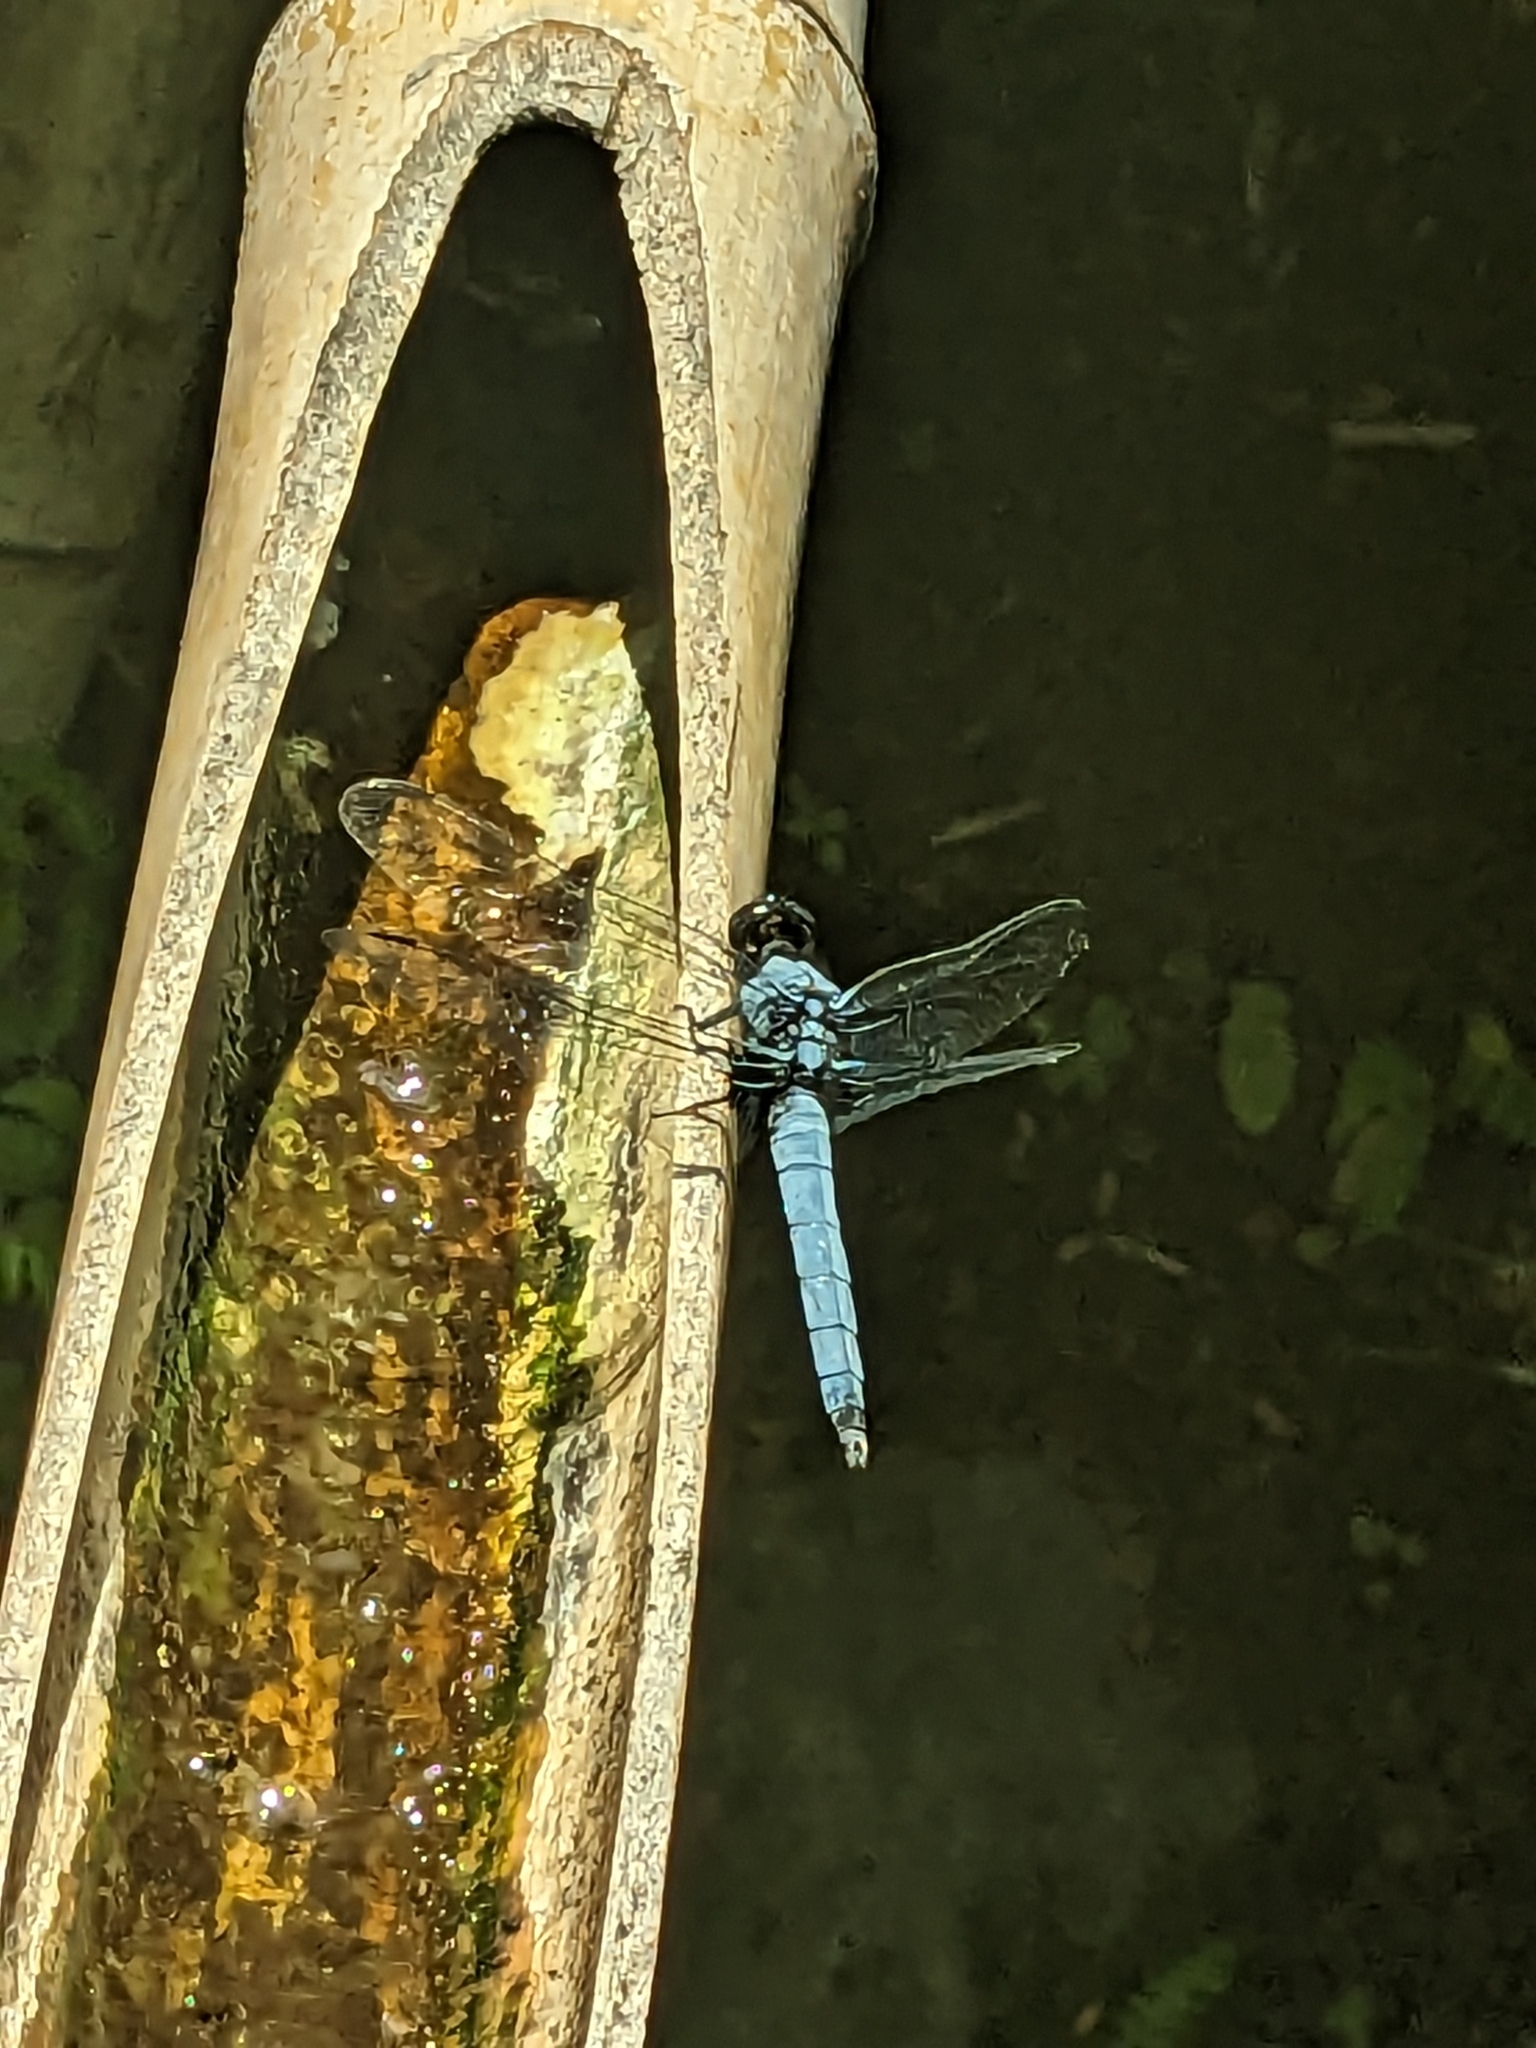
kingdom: Animalia
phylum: Arthropoda
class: Insecta
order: Odonata
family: Libellulidae
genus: Orthetrum
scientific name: Orthetrum melania
